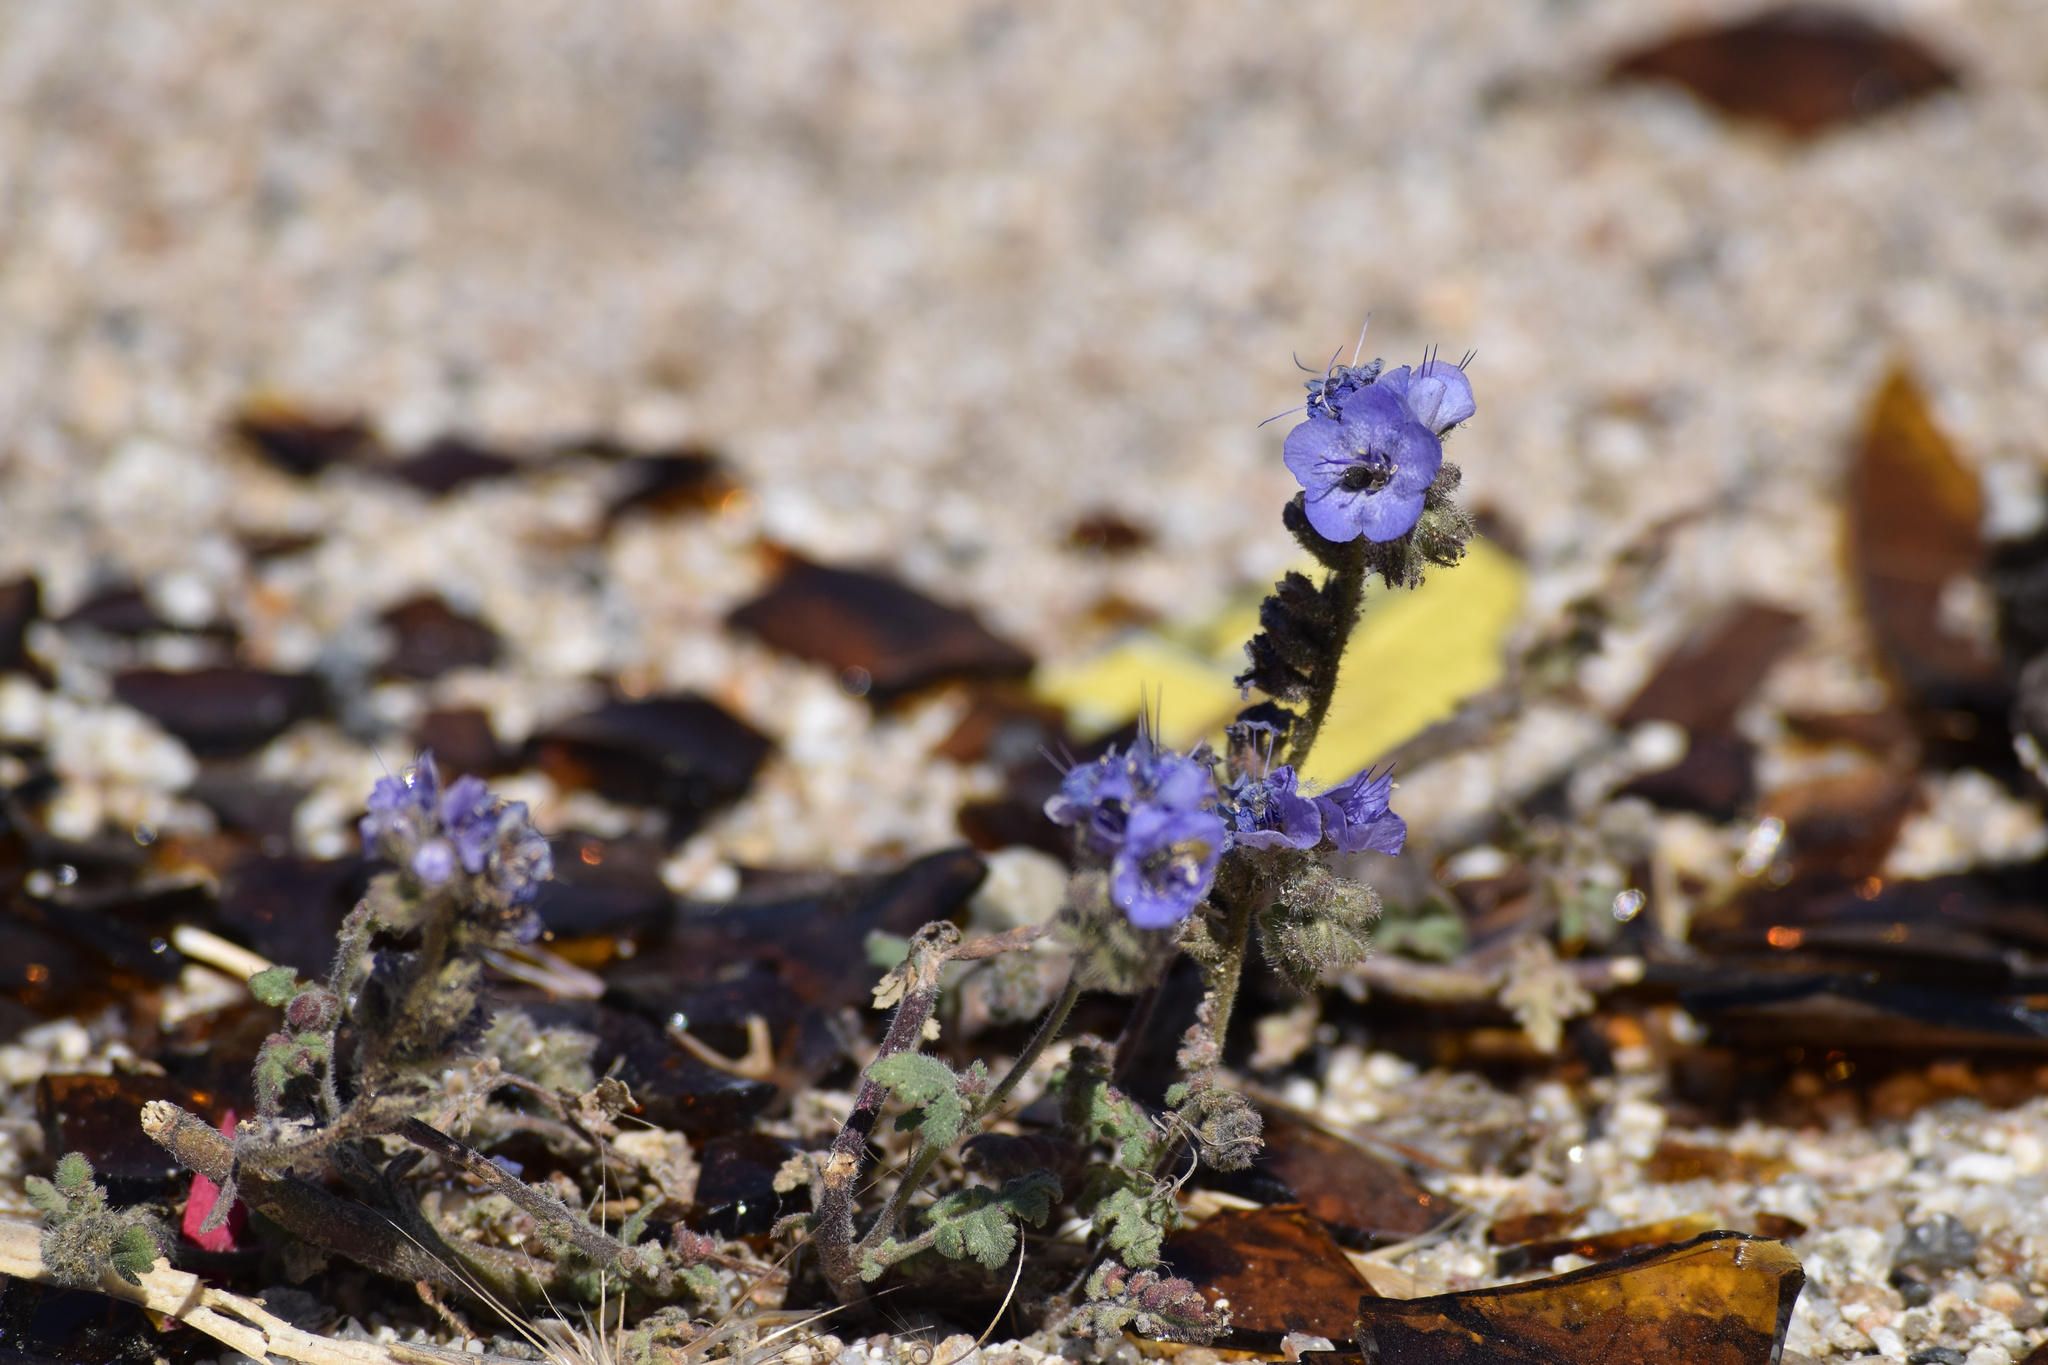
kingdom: Plantae
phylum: Tracheophyta
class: Magnoliopsida
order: Boraginales
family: Hydrophyllaceae
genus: Phacelia
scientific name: Phacelia distans
